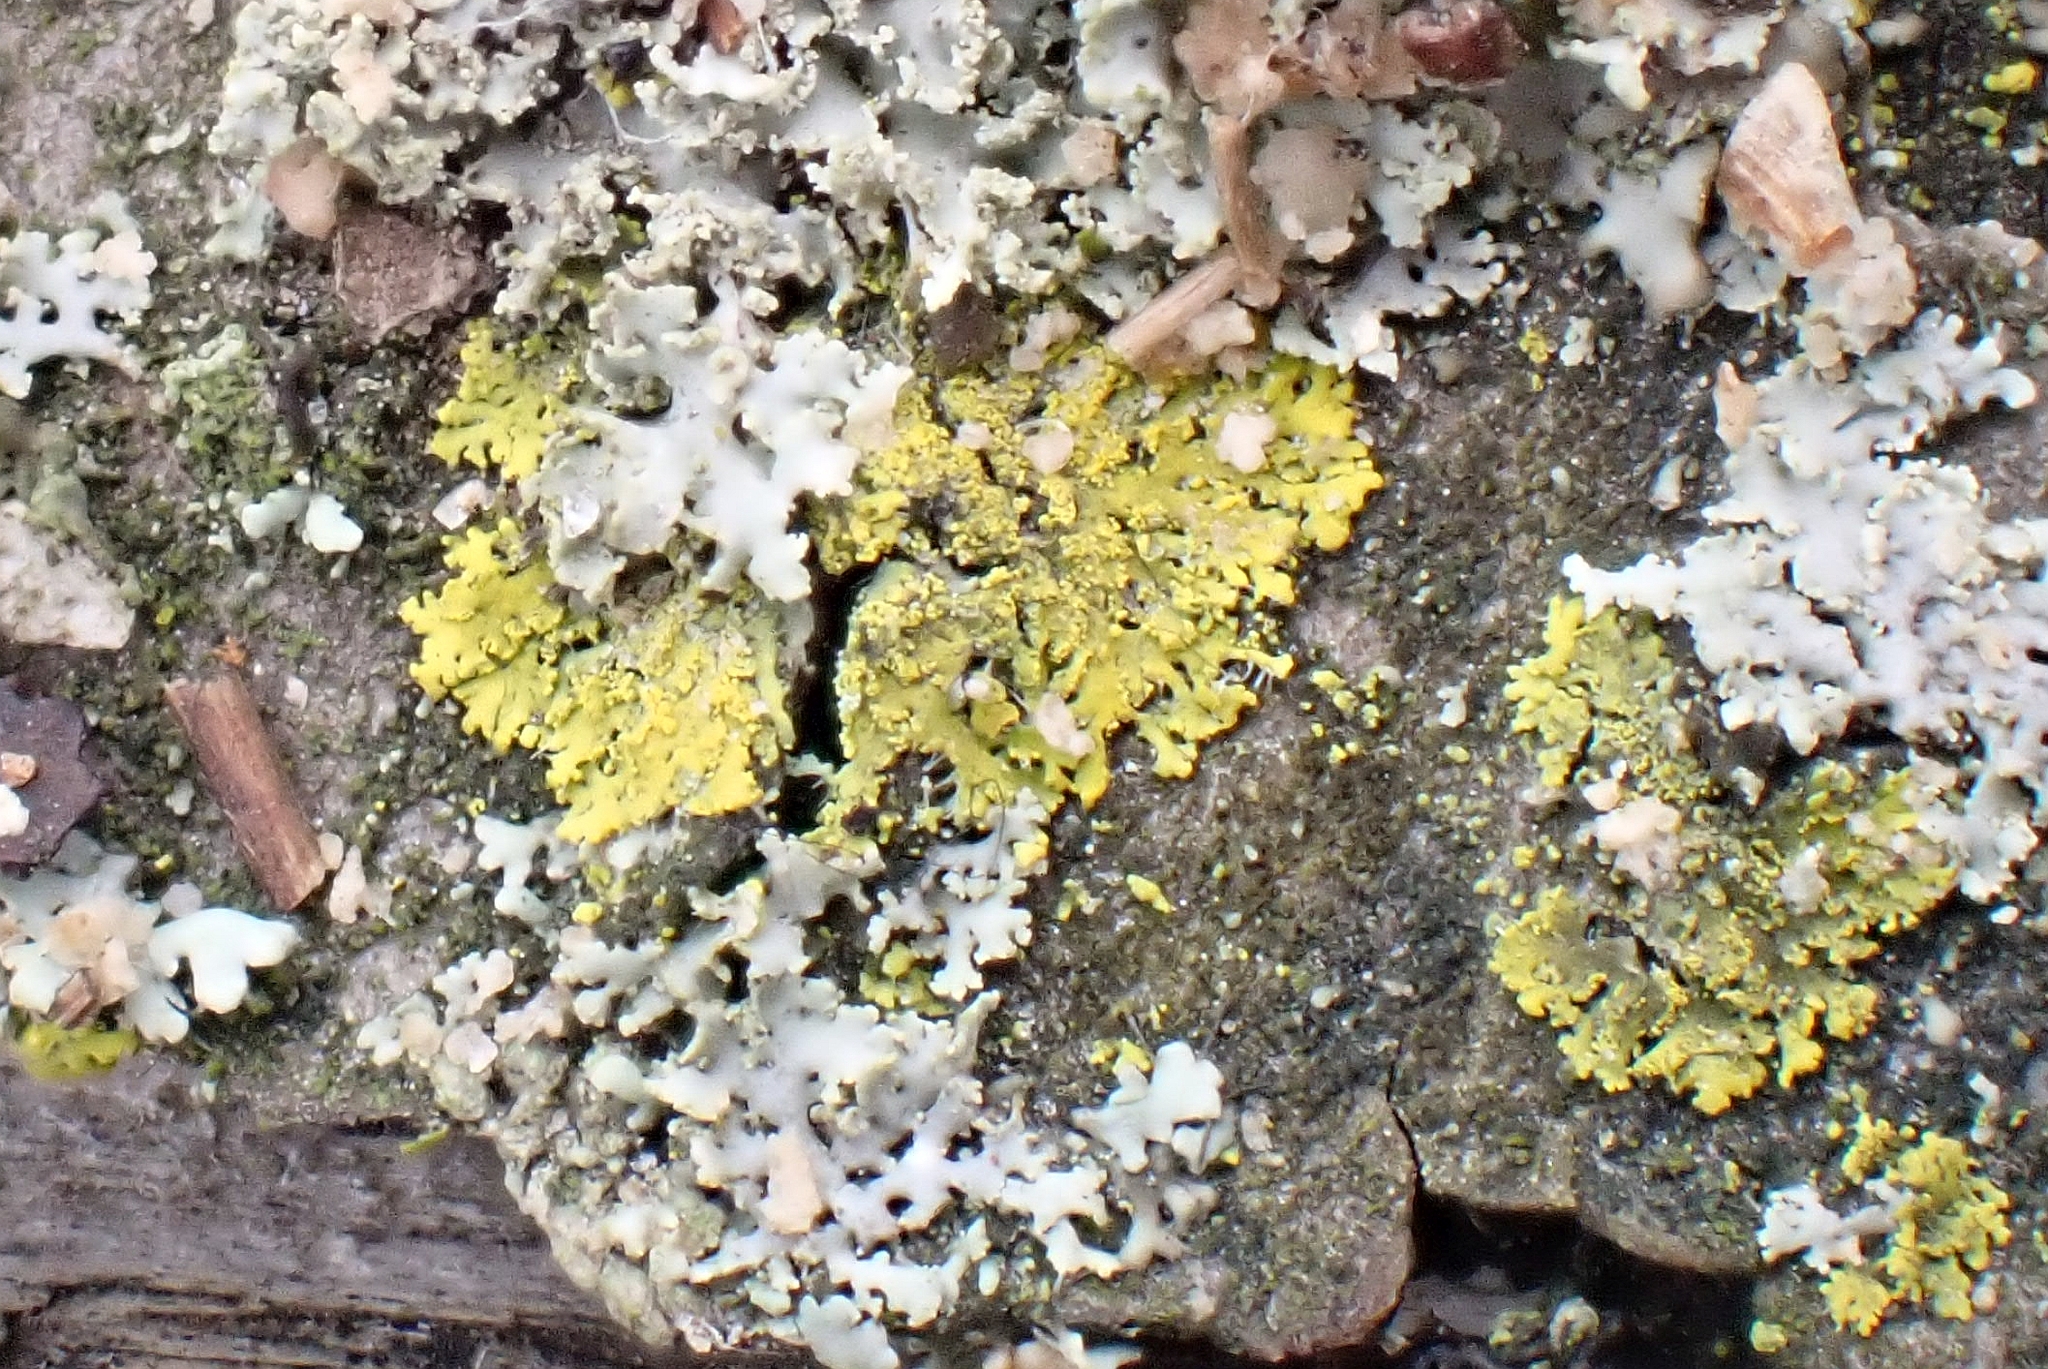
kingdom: Fungi
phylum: Ascomycota
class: Candelariomycetes
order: Candelariales
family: Candelariaceae
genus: Candelaria
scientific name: Candelaria concolor
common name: Candleflame lichen
